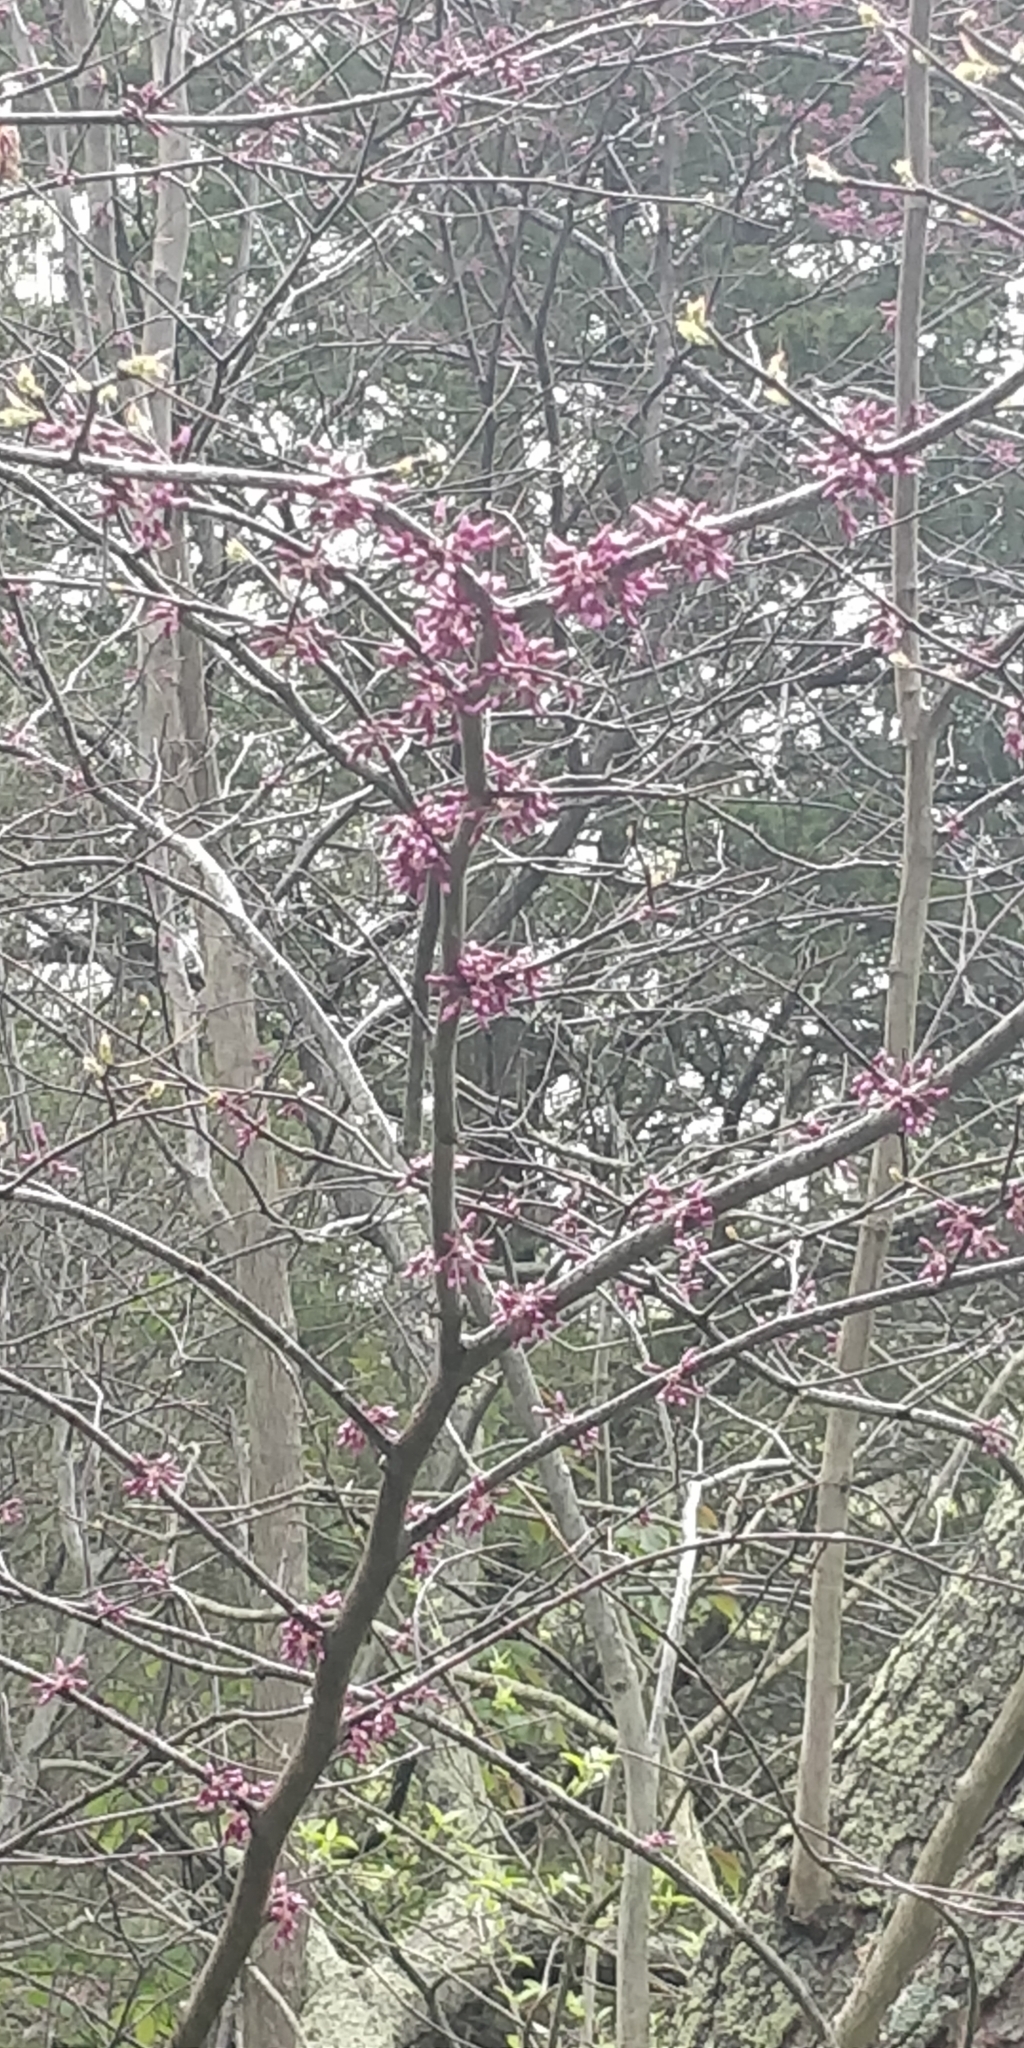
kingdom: Plantae
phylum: Tracheophyta
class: Magnoliopsida
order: Fabales
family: Fabaceae
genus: Cercis
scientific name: Cercis canadensis
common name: Eastern redbud
